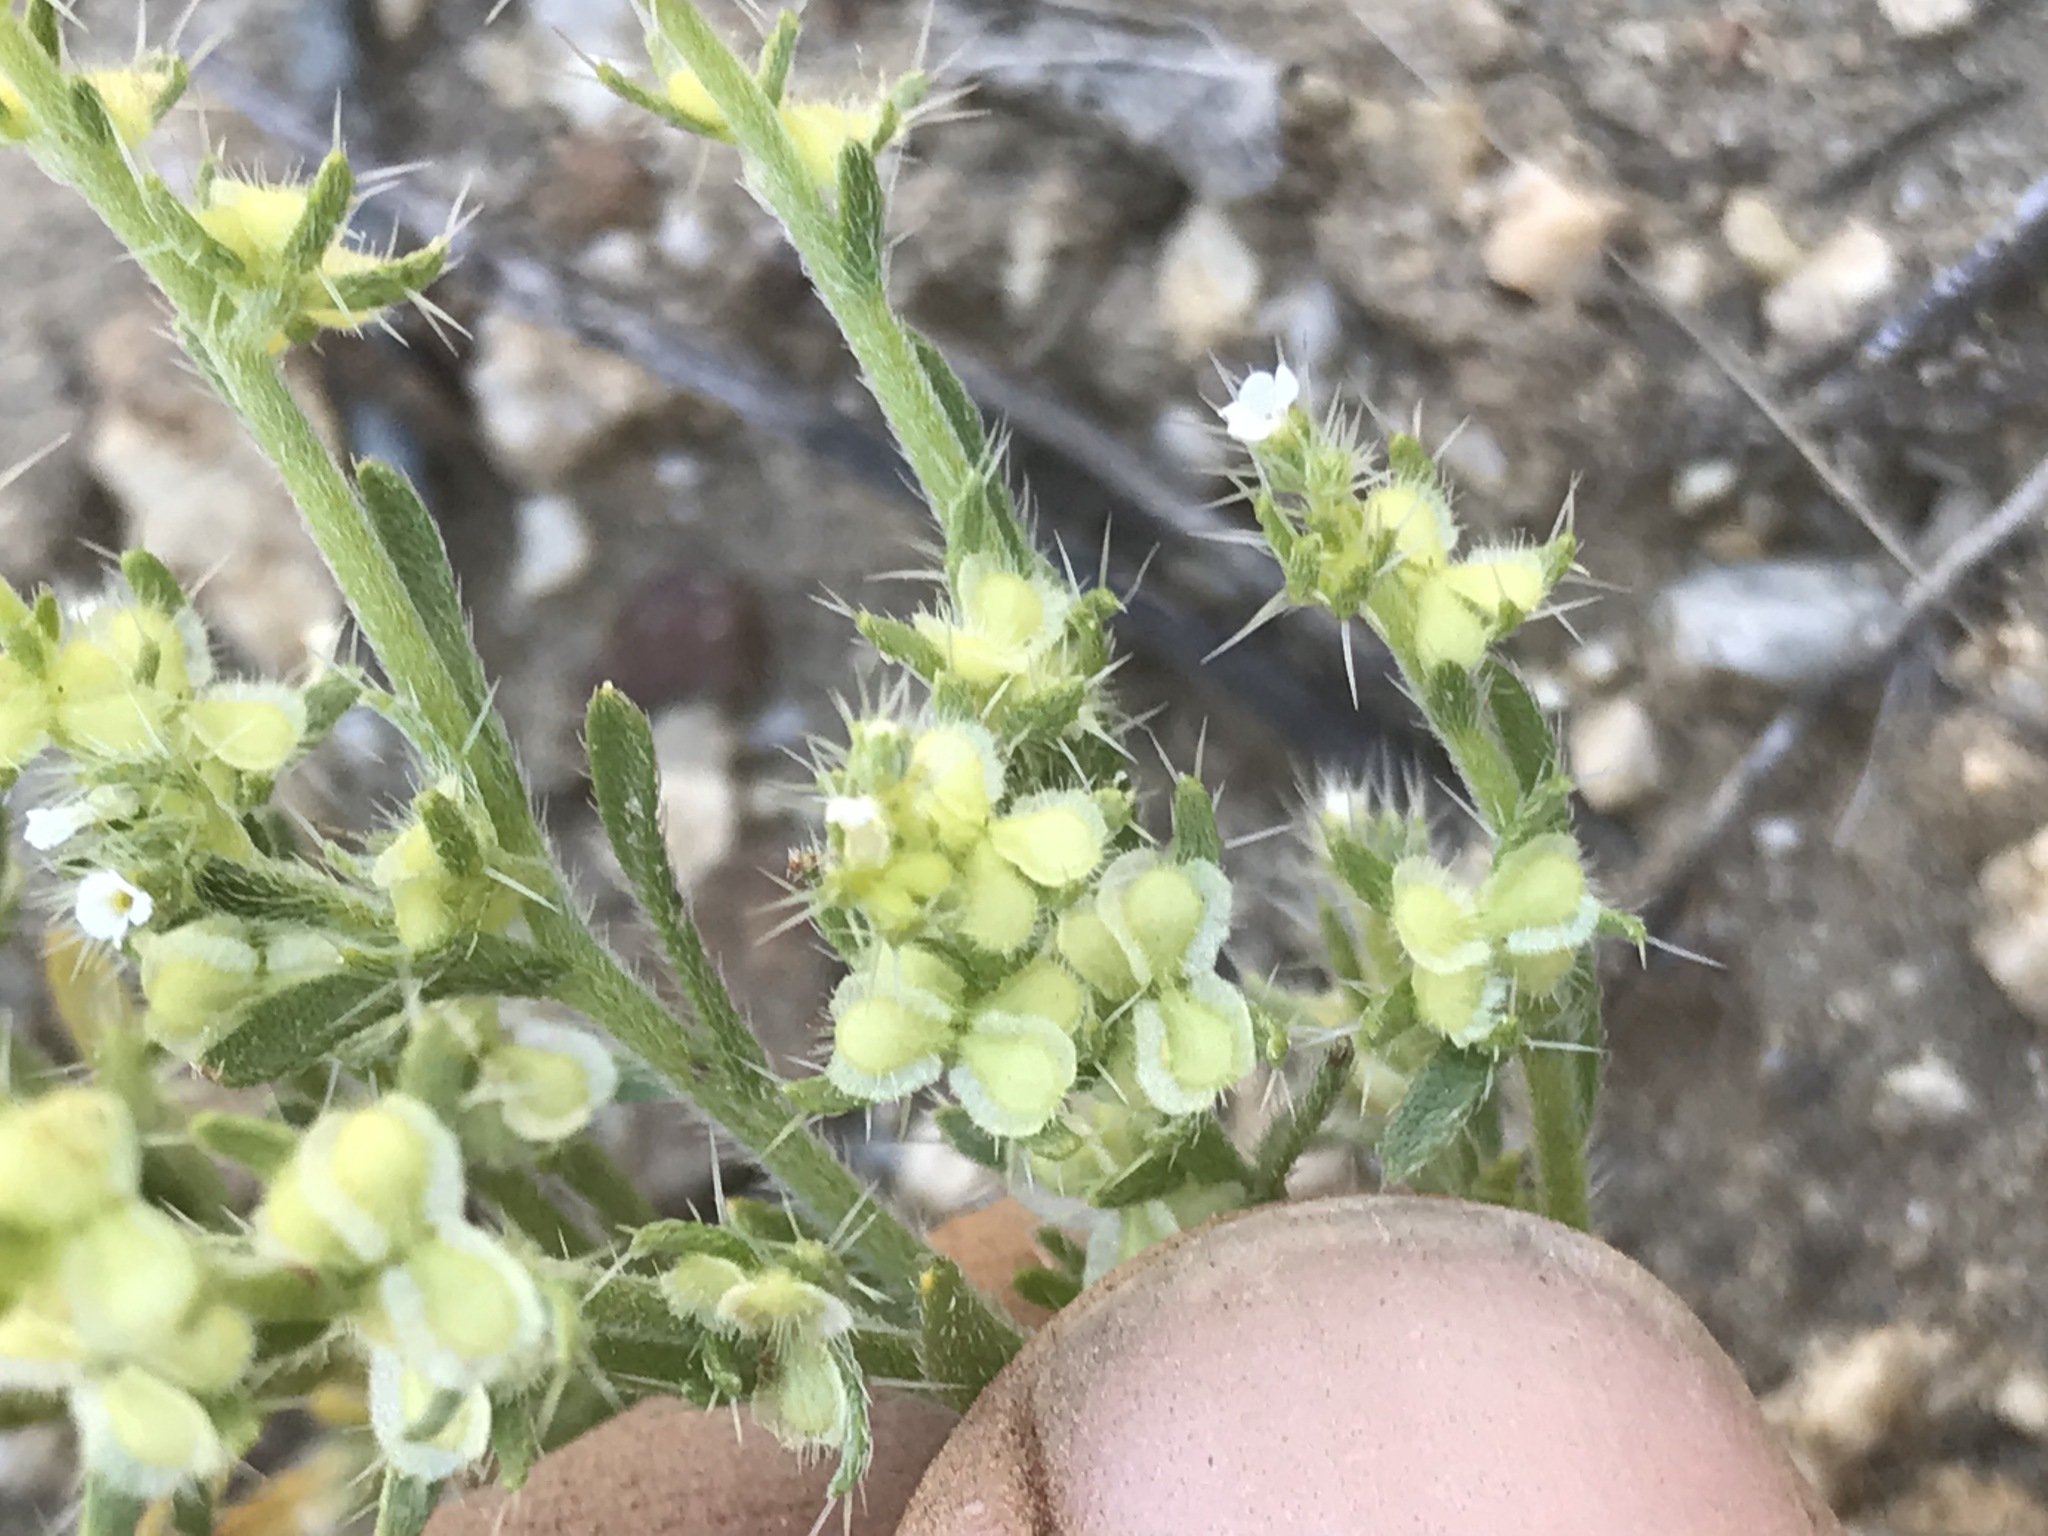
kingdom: Plantae
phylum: Tracheophyta
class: Magnoliopsida
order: Boraginales
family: Boraginaceae
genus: Pectocarya
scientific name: Pectocarya setosa
